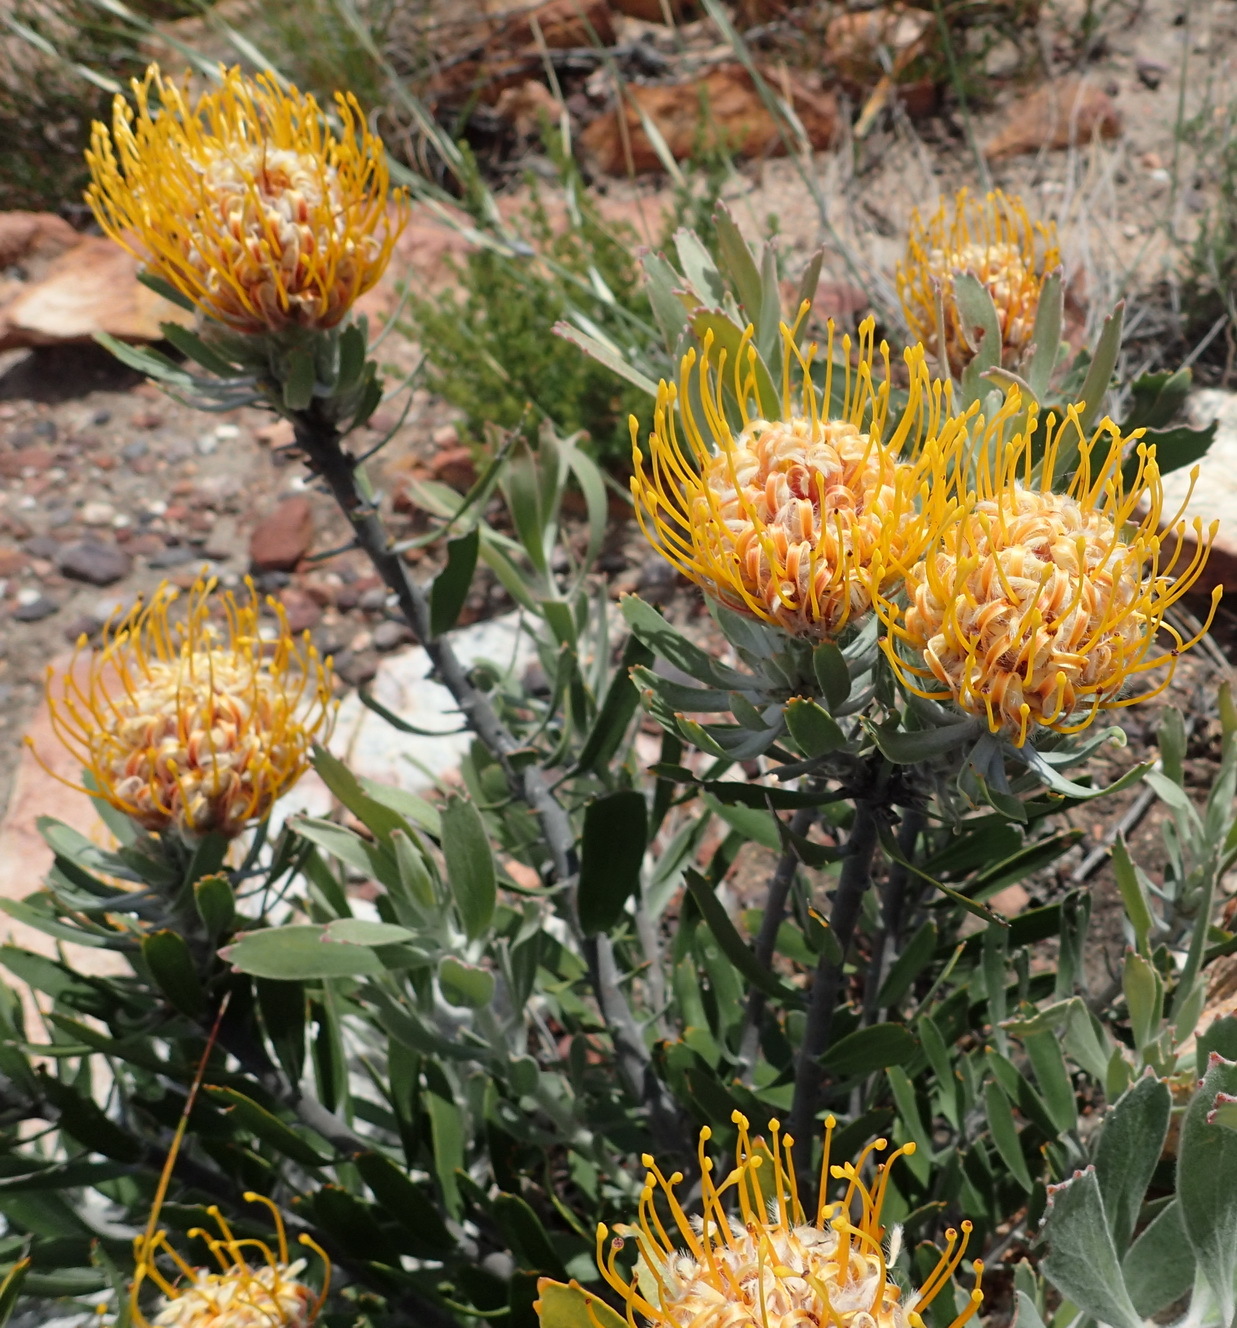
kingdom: Plantae
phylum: Tracheophyta
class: Magnoliopsida
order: Proteales
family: Proteaceae
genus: Leucospermum
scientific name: Leucospermum cuneiforme
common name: Common pincushion
